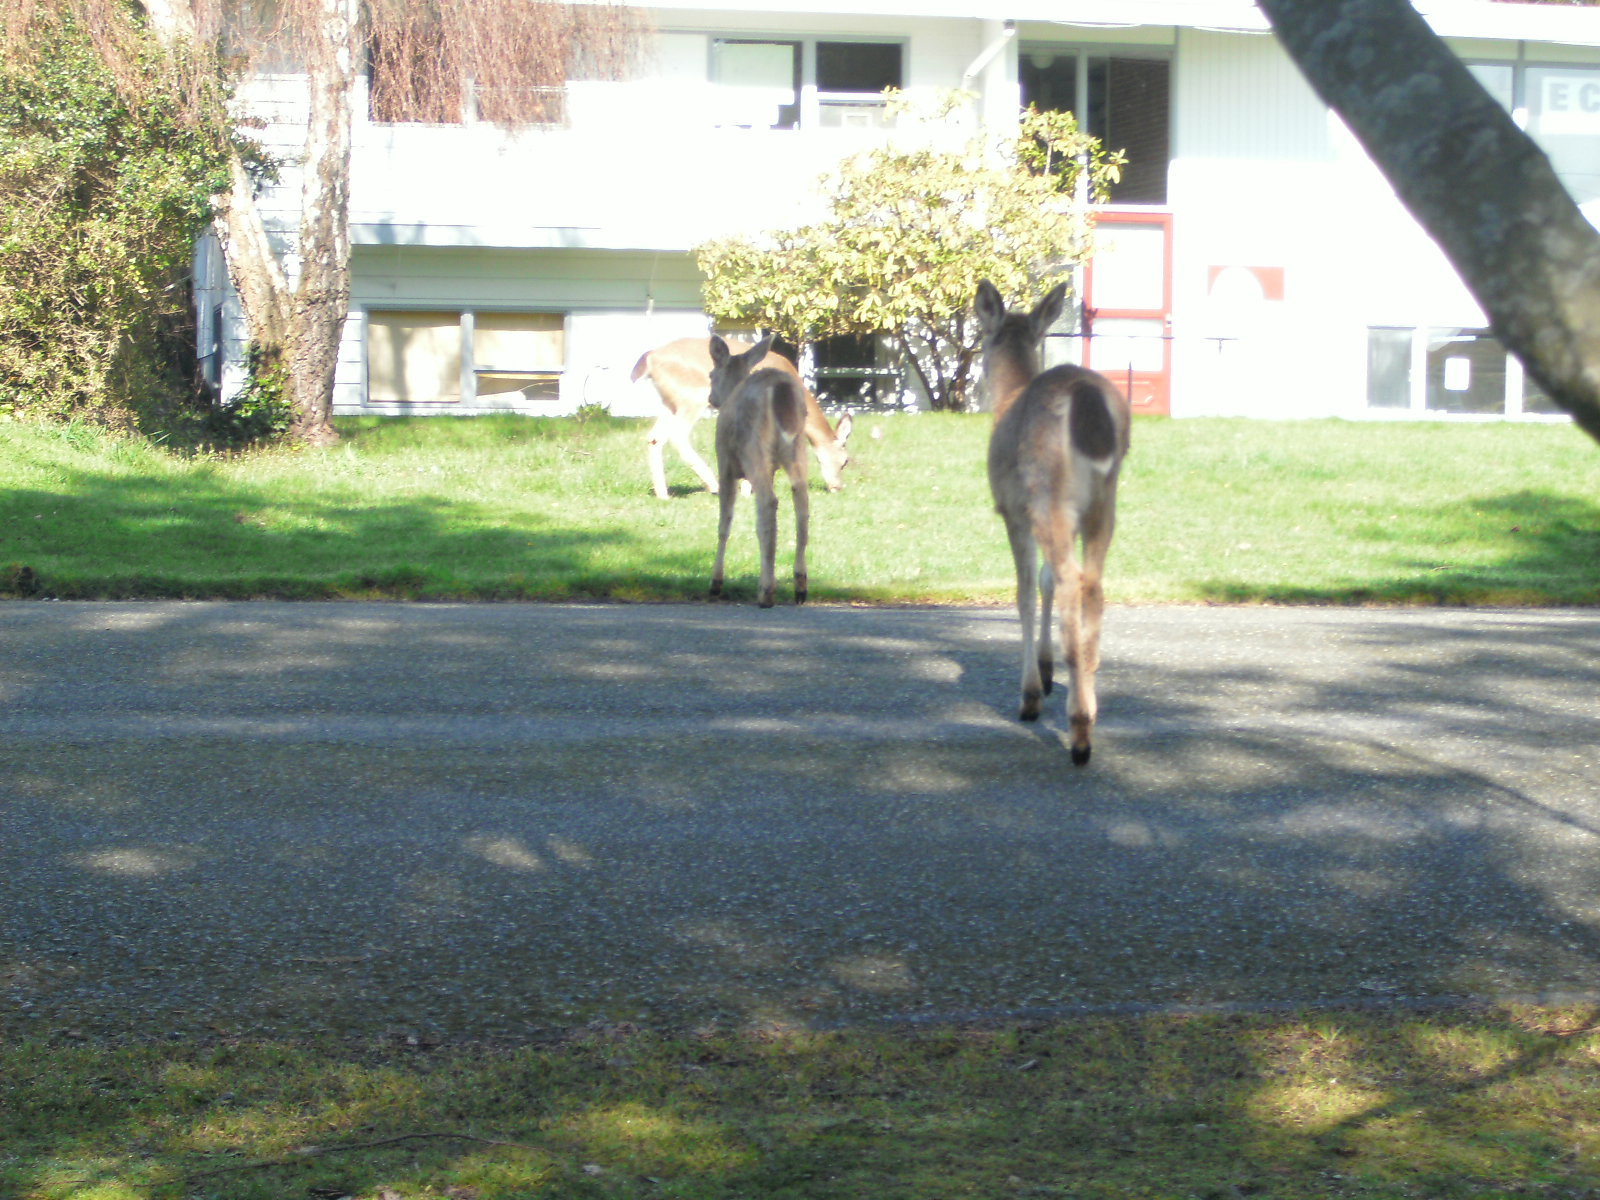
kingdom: Animalia
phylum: Chordata
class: Mammalia
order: Artiodactyla
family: Cervidae
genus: Odocoileus
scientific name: Odocoileus hemionus
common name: Mule deer
